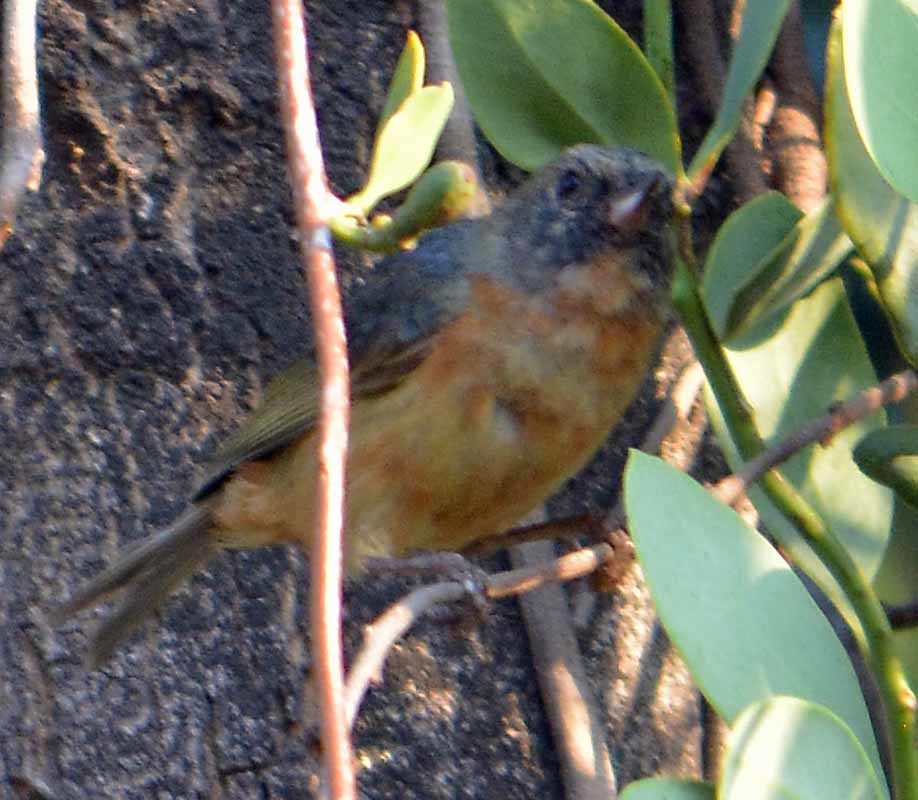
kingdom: Animalia
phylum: Chordata
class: Aves
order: Passeriformes
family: Thraupidae
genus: Diglossa
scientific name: Diglossa baritula
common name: Cinnamon-bellied flowerpiercer
